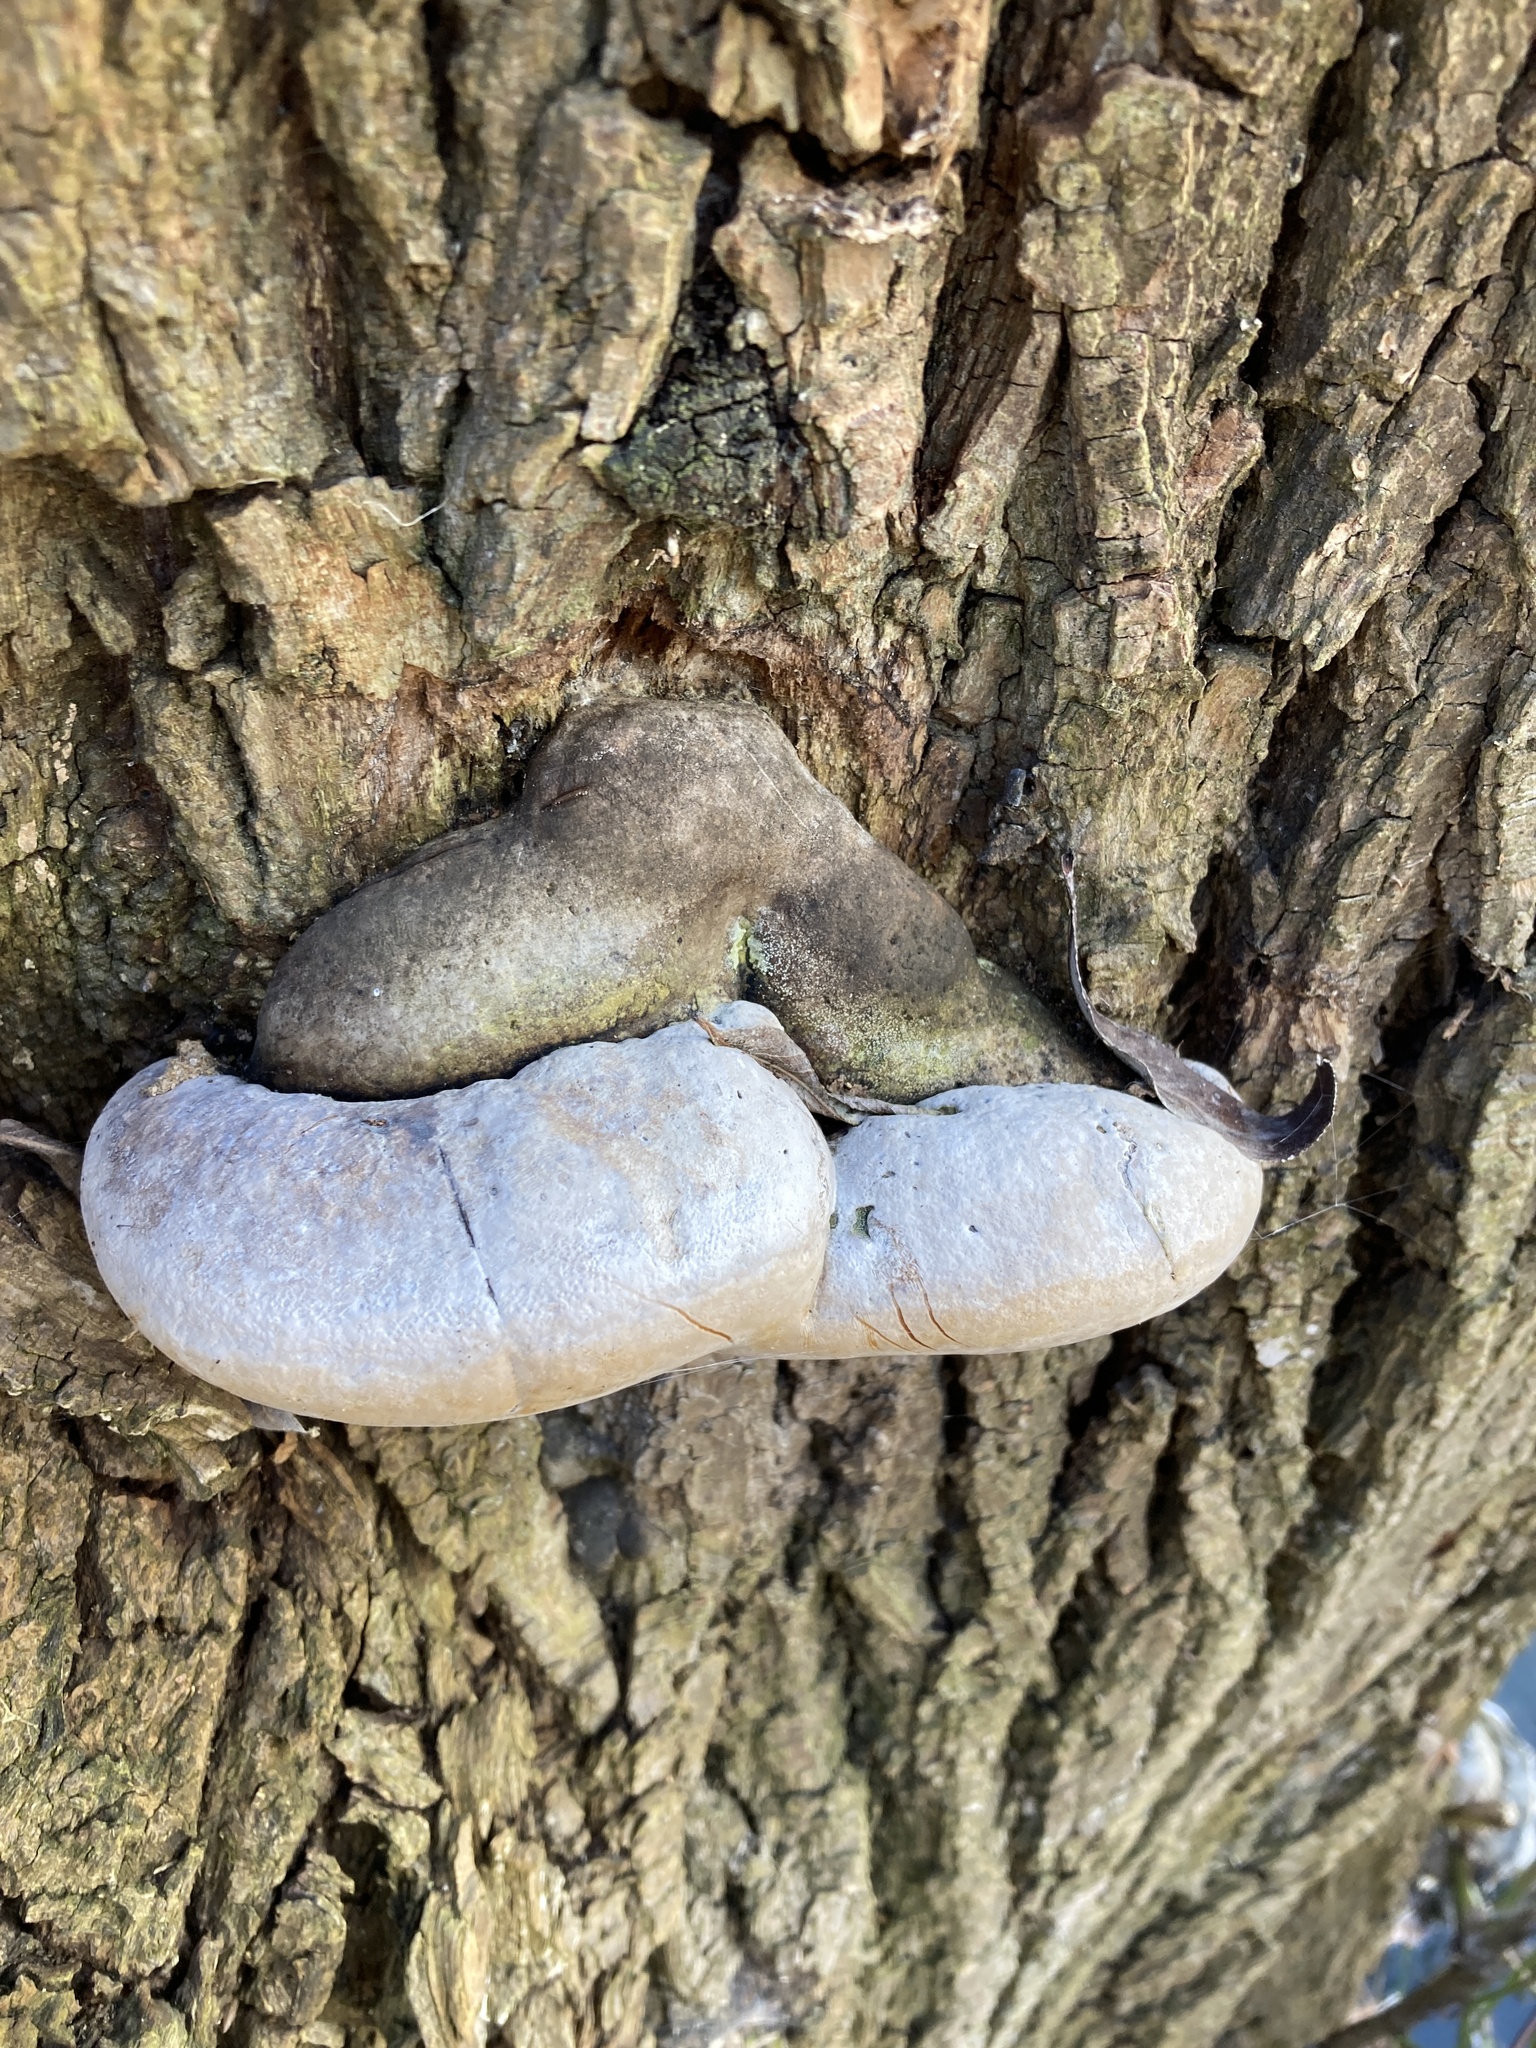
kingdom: Fungi
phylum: Basidiomycota
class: Agaricomycetes
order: Hymenochaetales
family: Hymenochaetaceae
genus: Phellinus
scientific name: Phellinus igniarius
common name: Willow bracket
